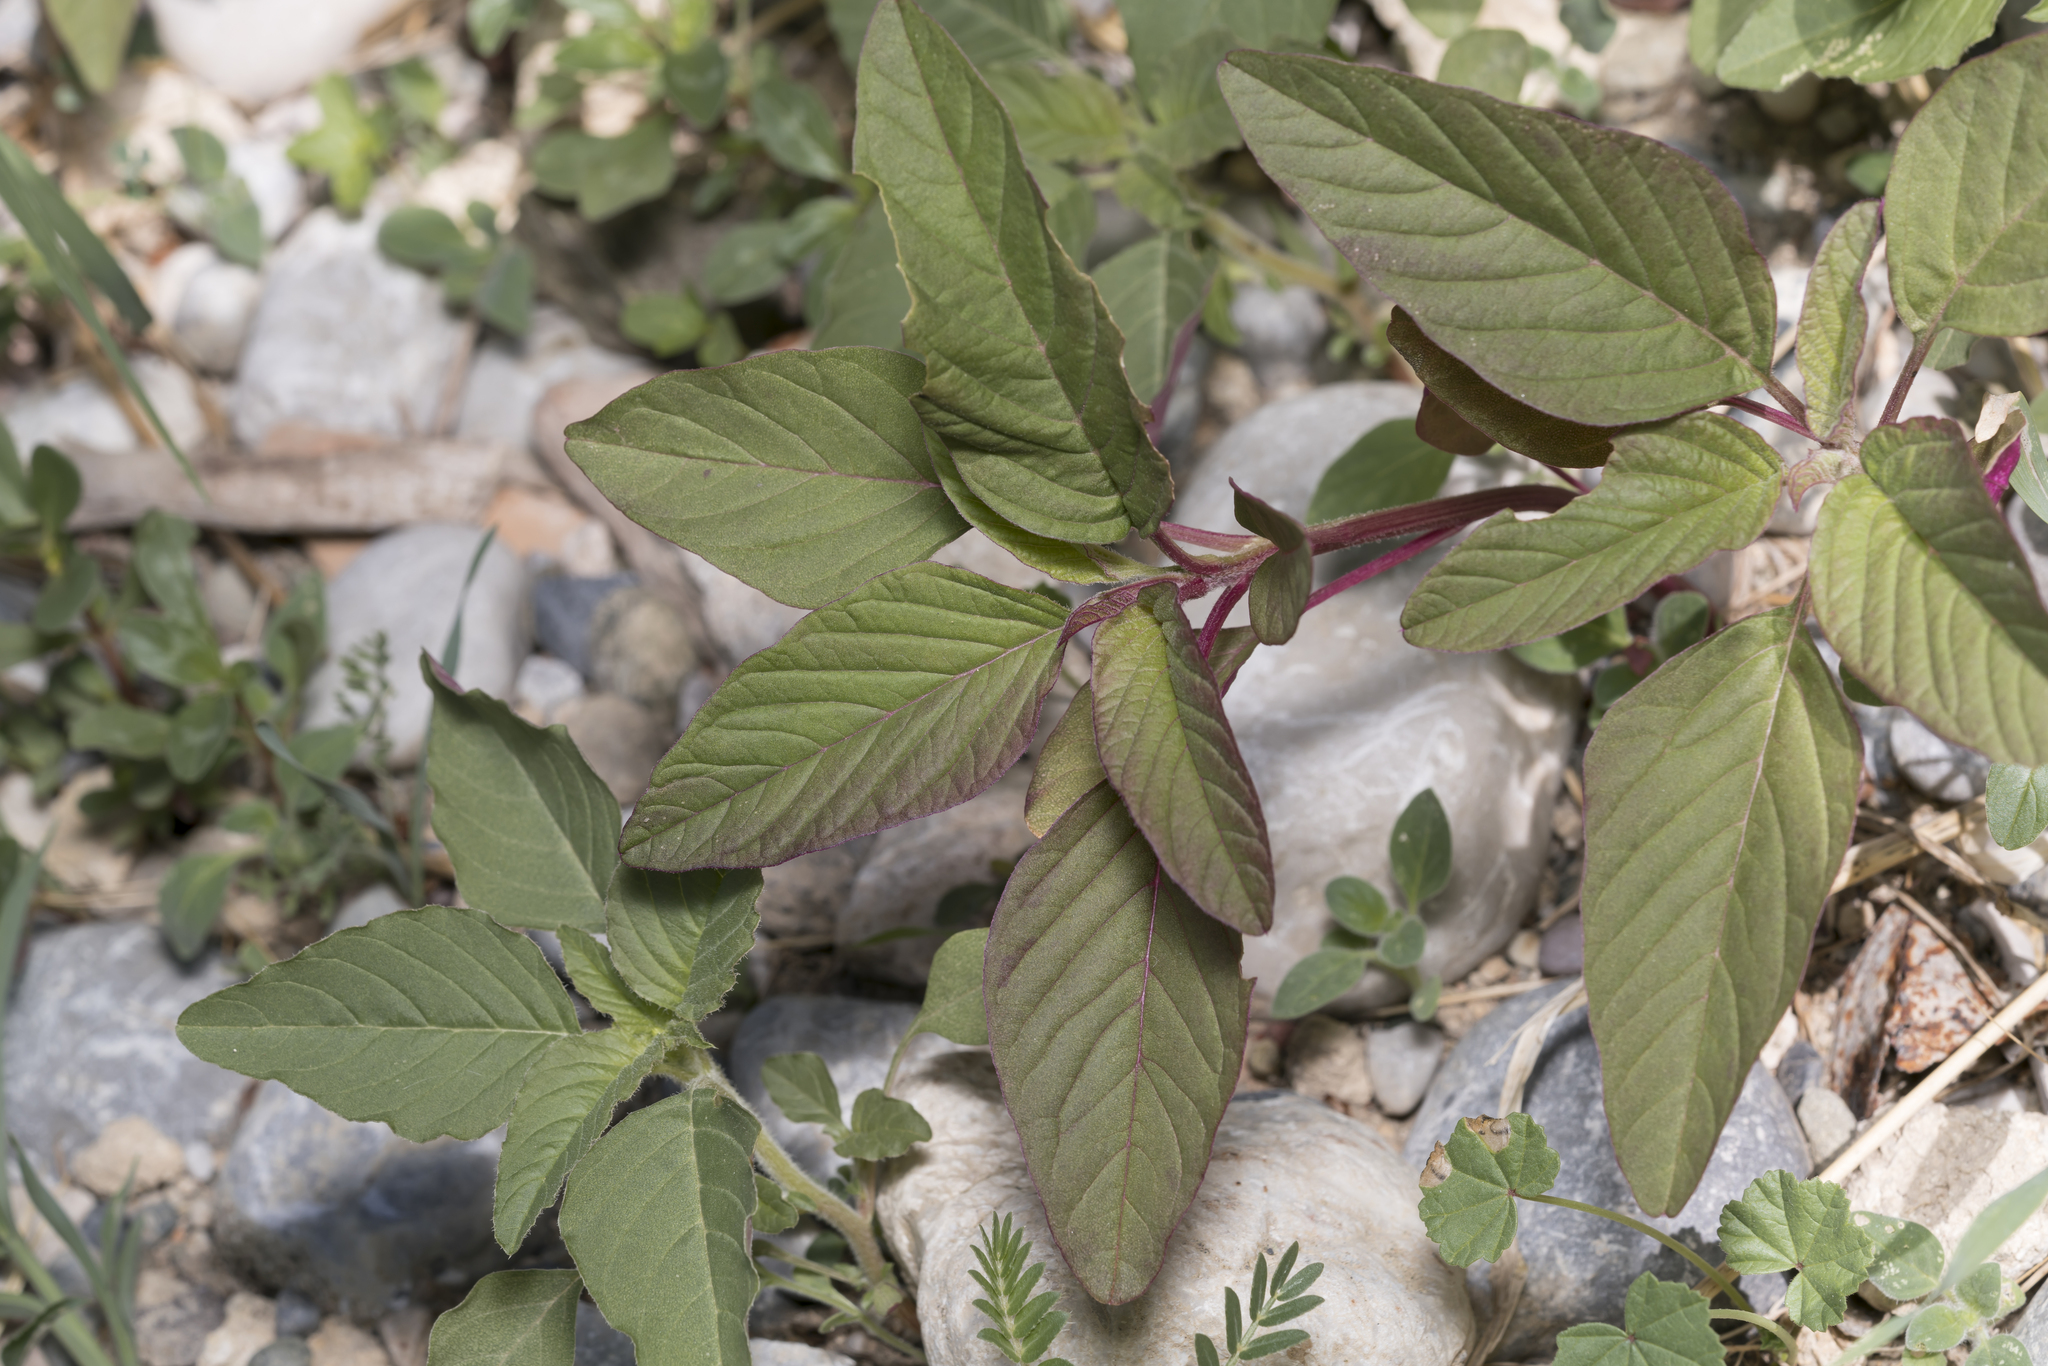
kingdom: Plantae
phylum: Tracheophyta
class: Magnoliopsida
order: Caryophyllales
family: Amaranthaceae
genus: Amaranthus
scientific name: Amaranthus cruentus
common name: Purple amaranth
